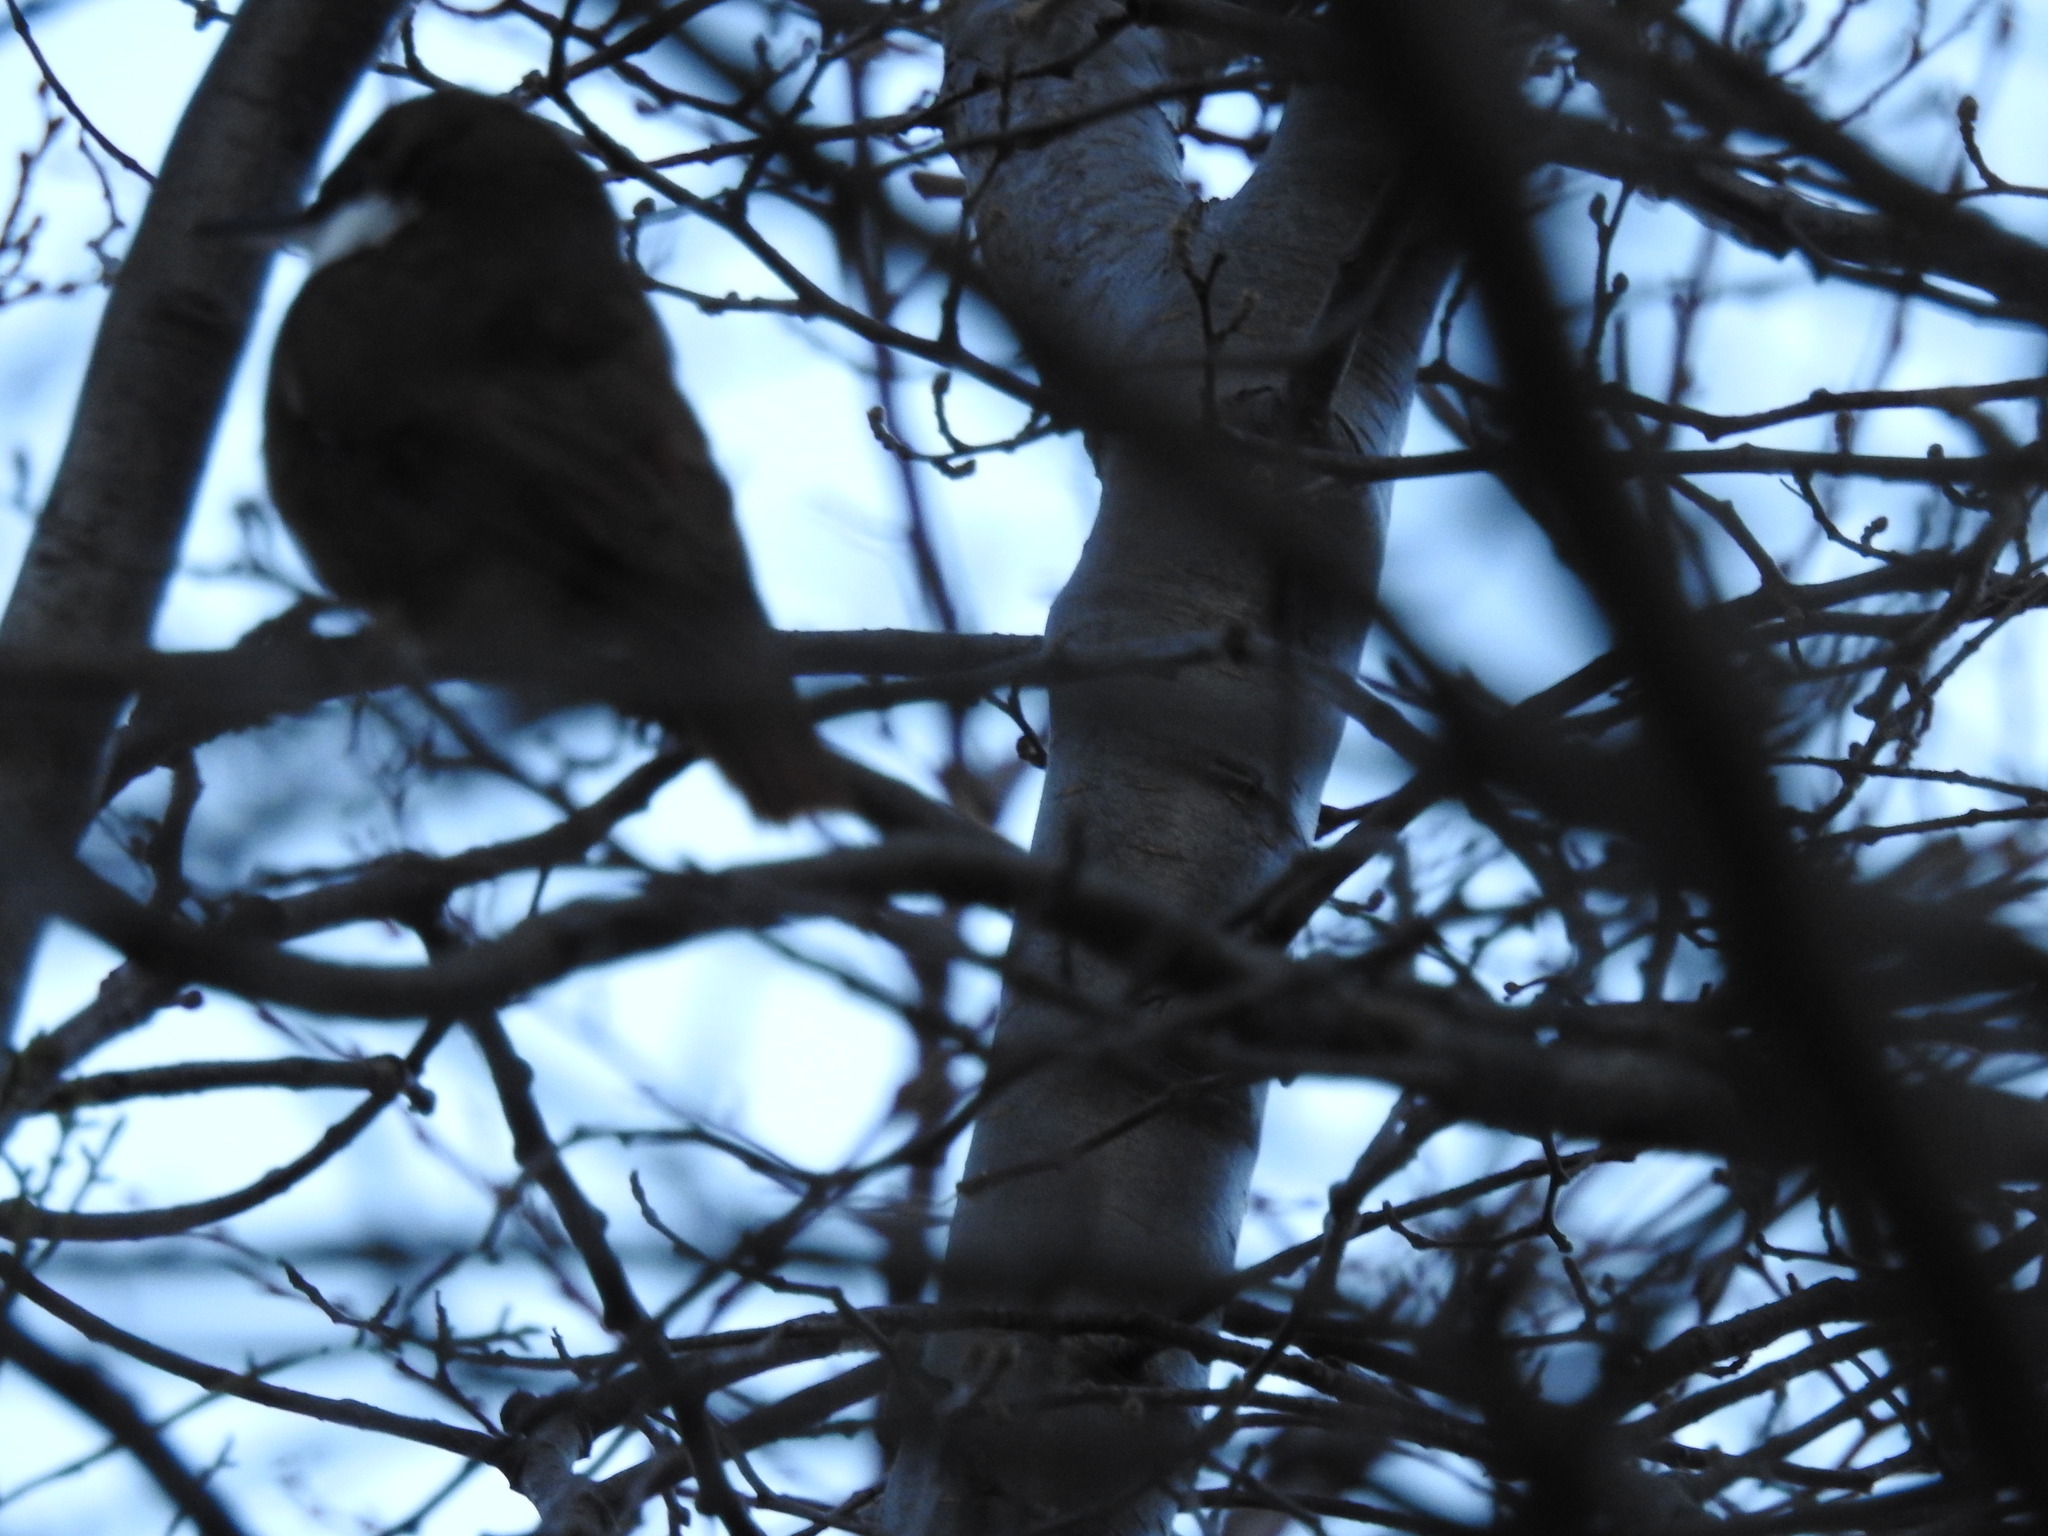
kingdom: Animalia
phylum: Chordata
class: Aves
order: Passeriformes
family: Furnariidae
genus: Pygarrhichas
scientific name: Pygarrhichas albogularis
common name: White-throated treerunner
